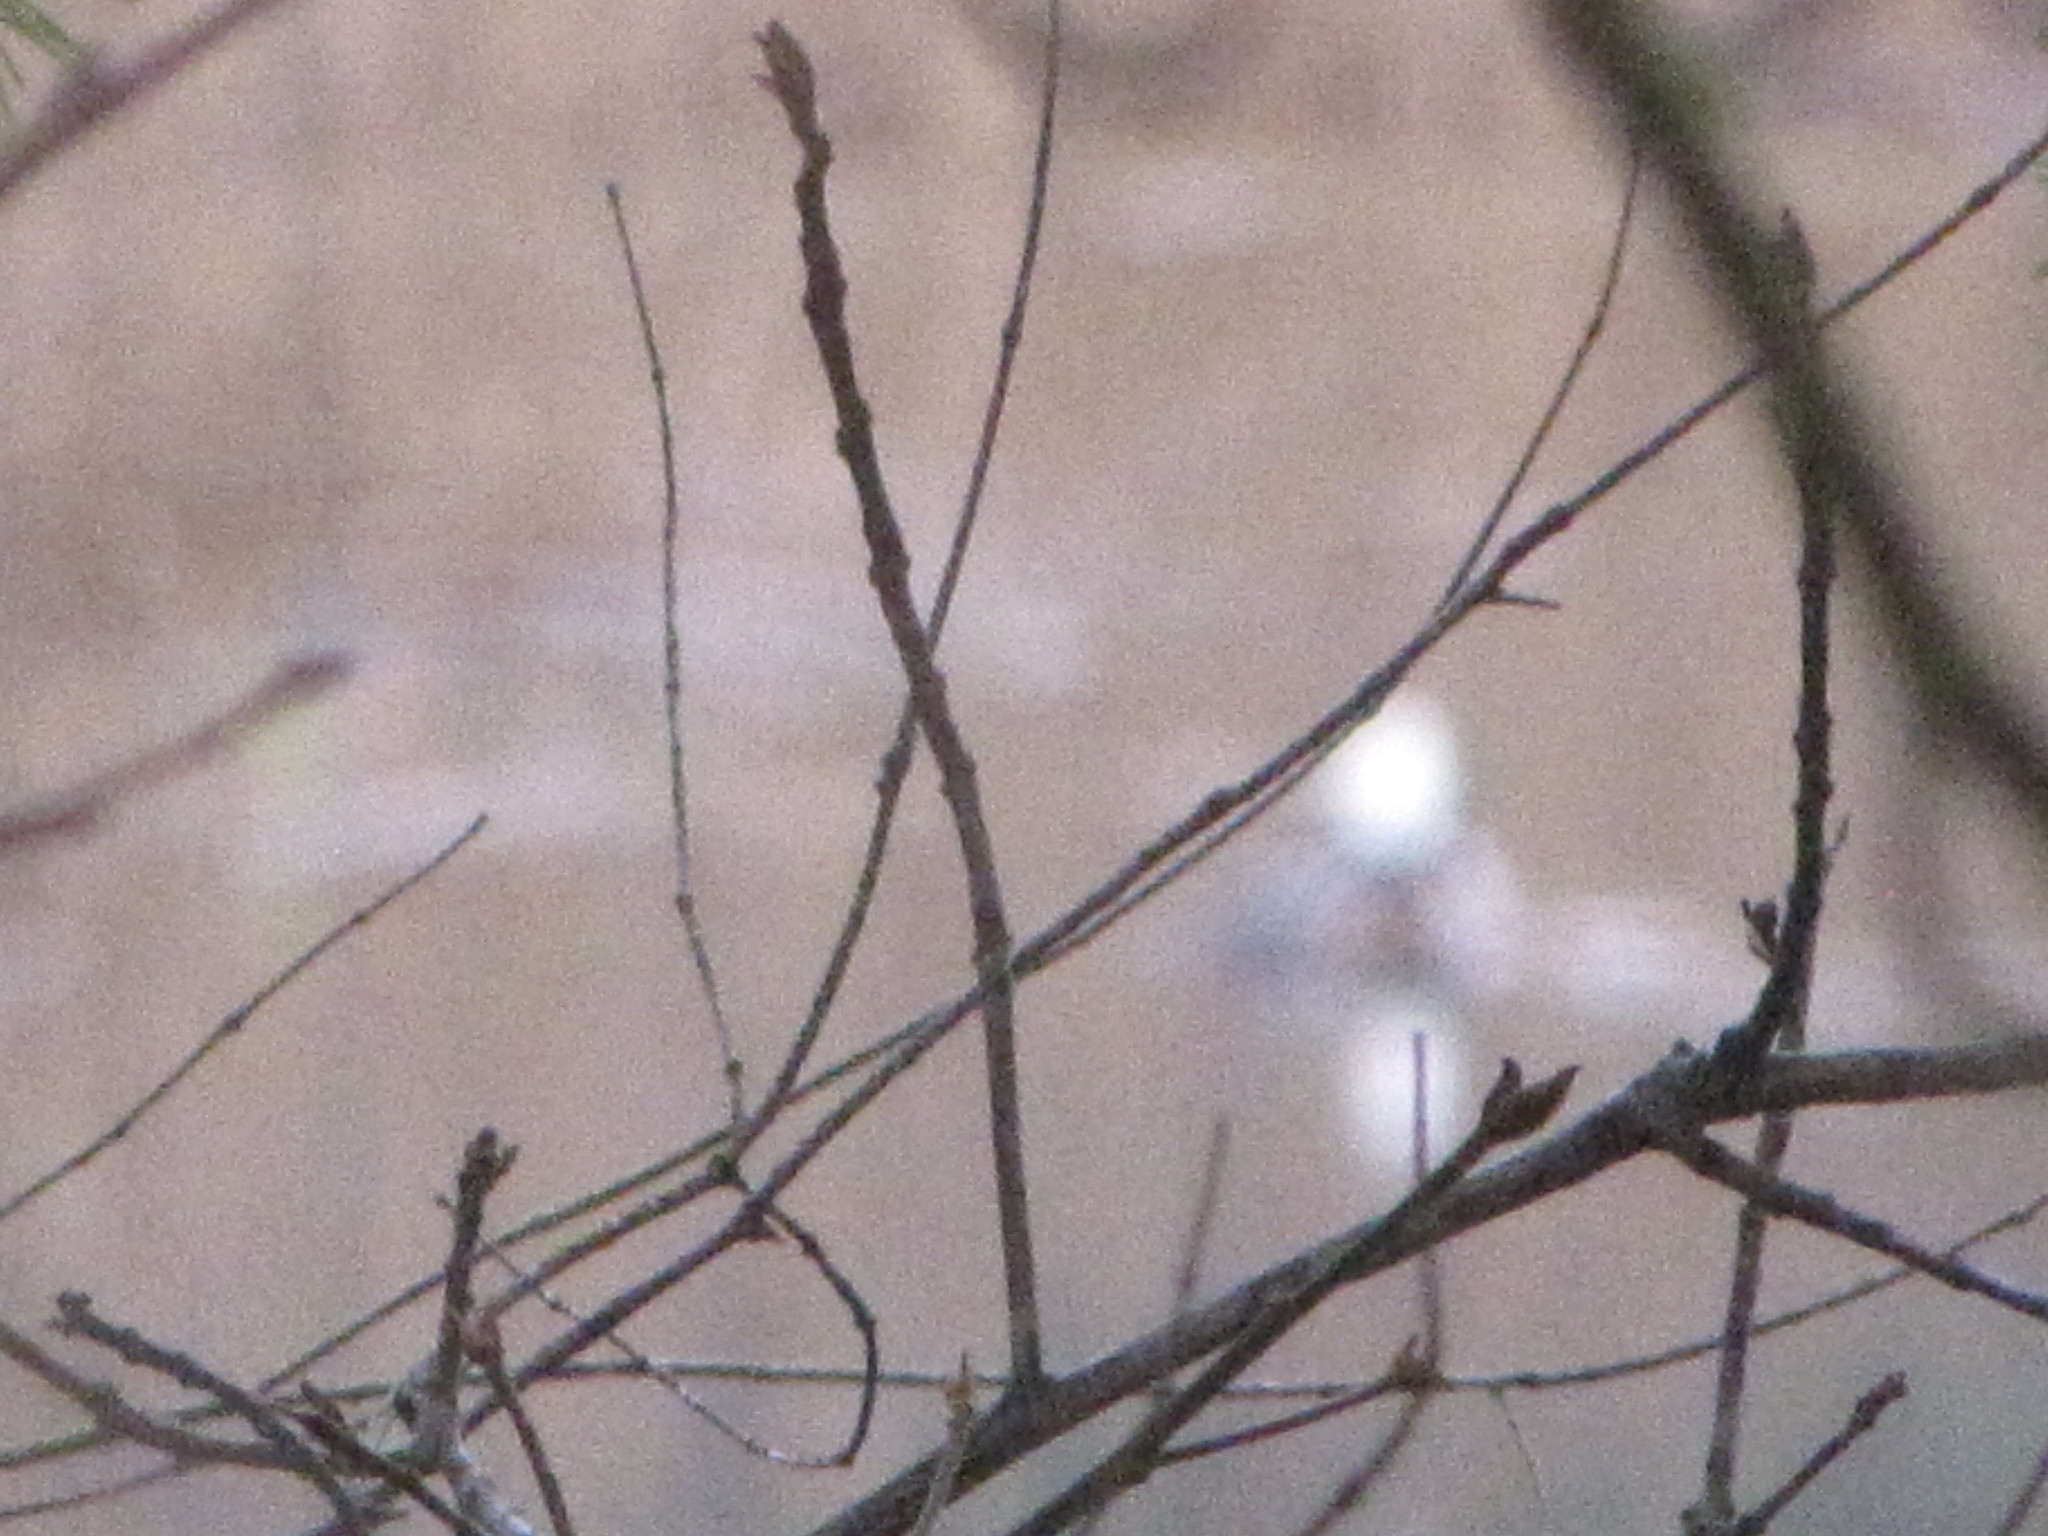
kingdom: Animalia
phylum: Chordata
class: Aves
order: Anseriformes
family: Anatidae
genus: Lophodytes
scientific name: Lophodytes cucullatus
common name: Hooded merganser
